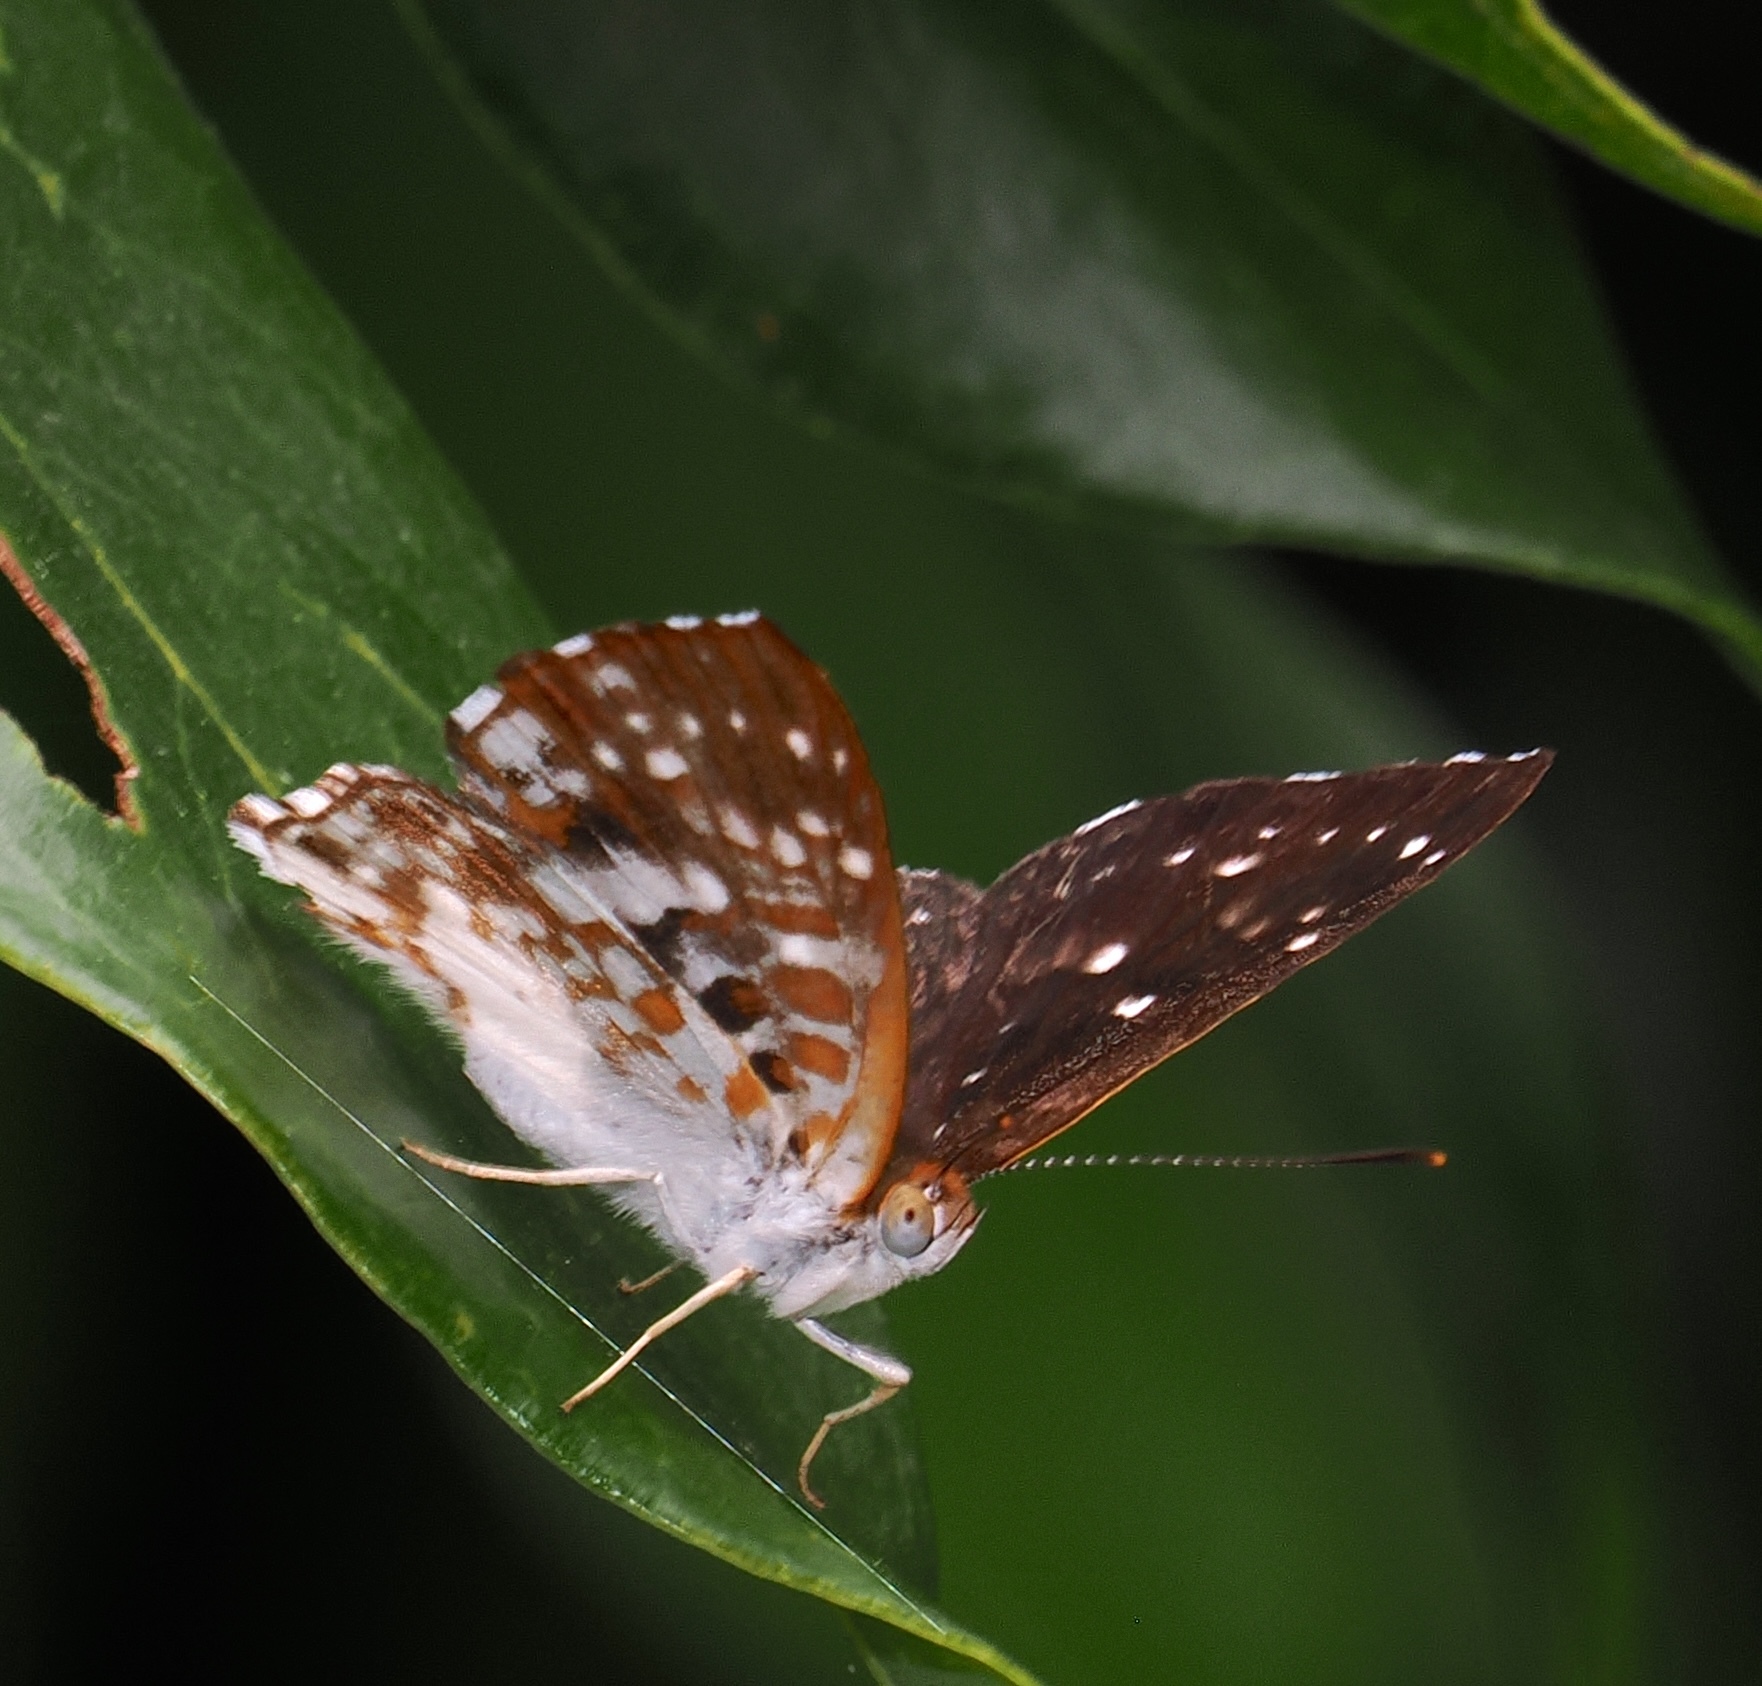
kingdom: Animalia
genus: Lemonias
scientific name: Lemonias zygia
